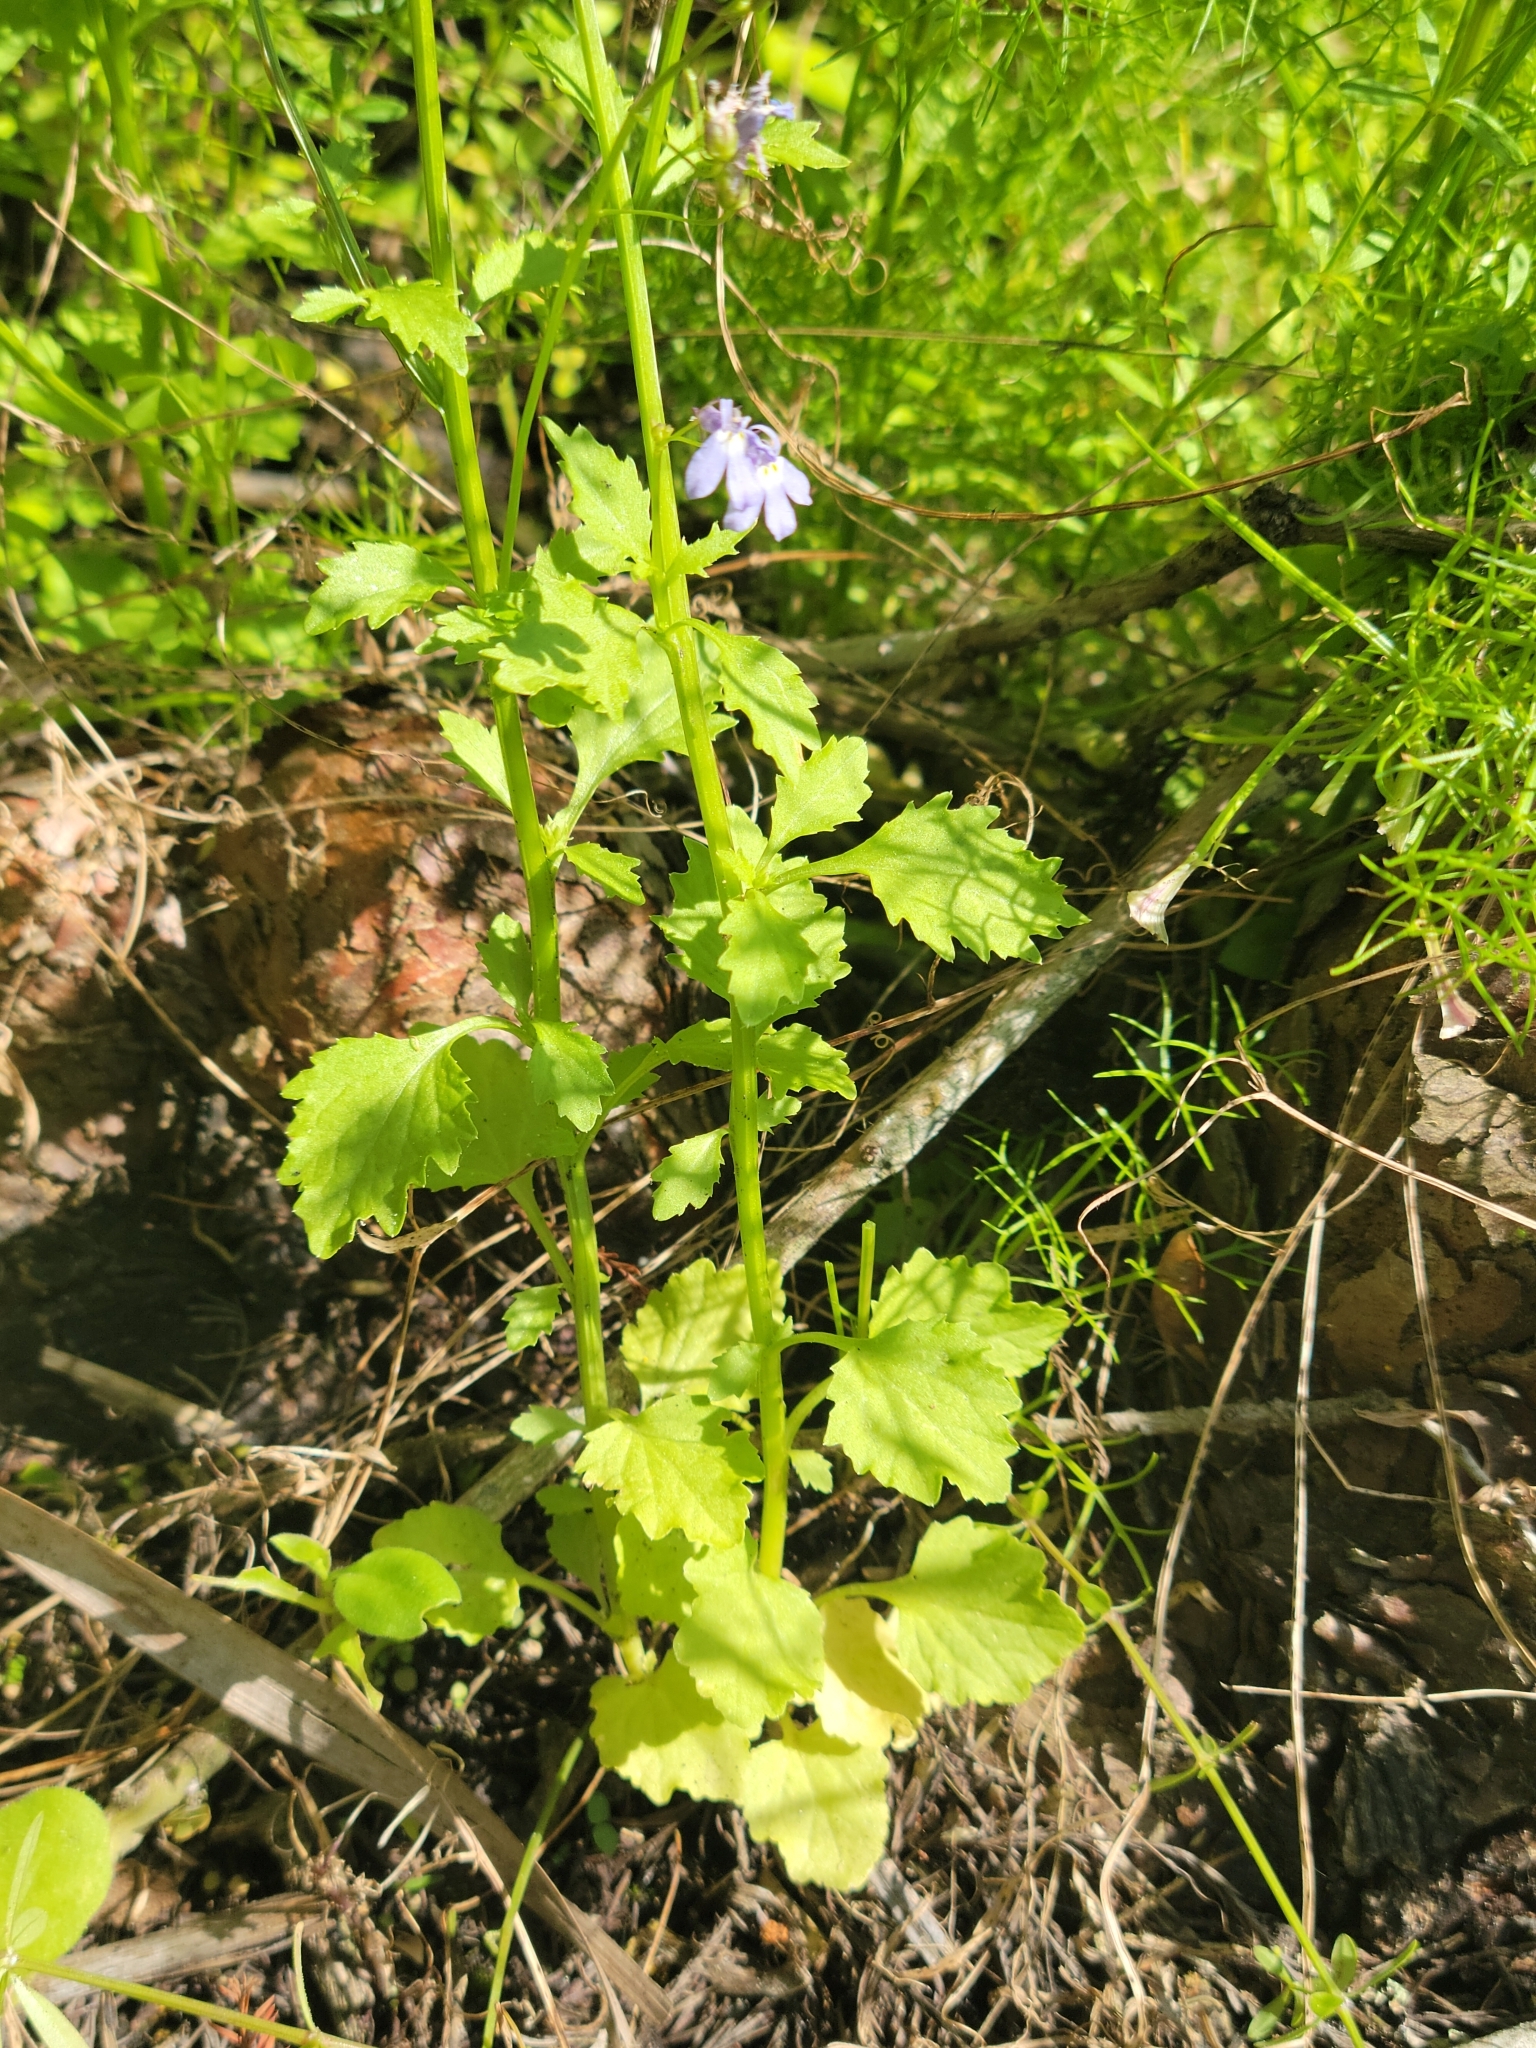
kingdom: Plantae
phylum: Tracheophyta
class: Magnoliopsida
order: Asterales
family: Campanulaceae
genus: Lobelia
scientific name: Lobelia homophylla
